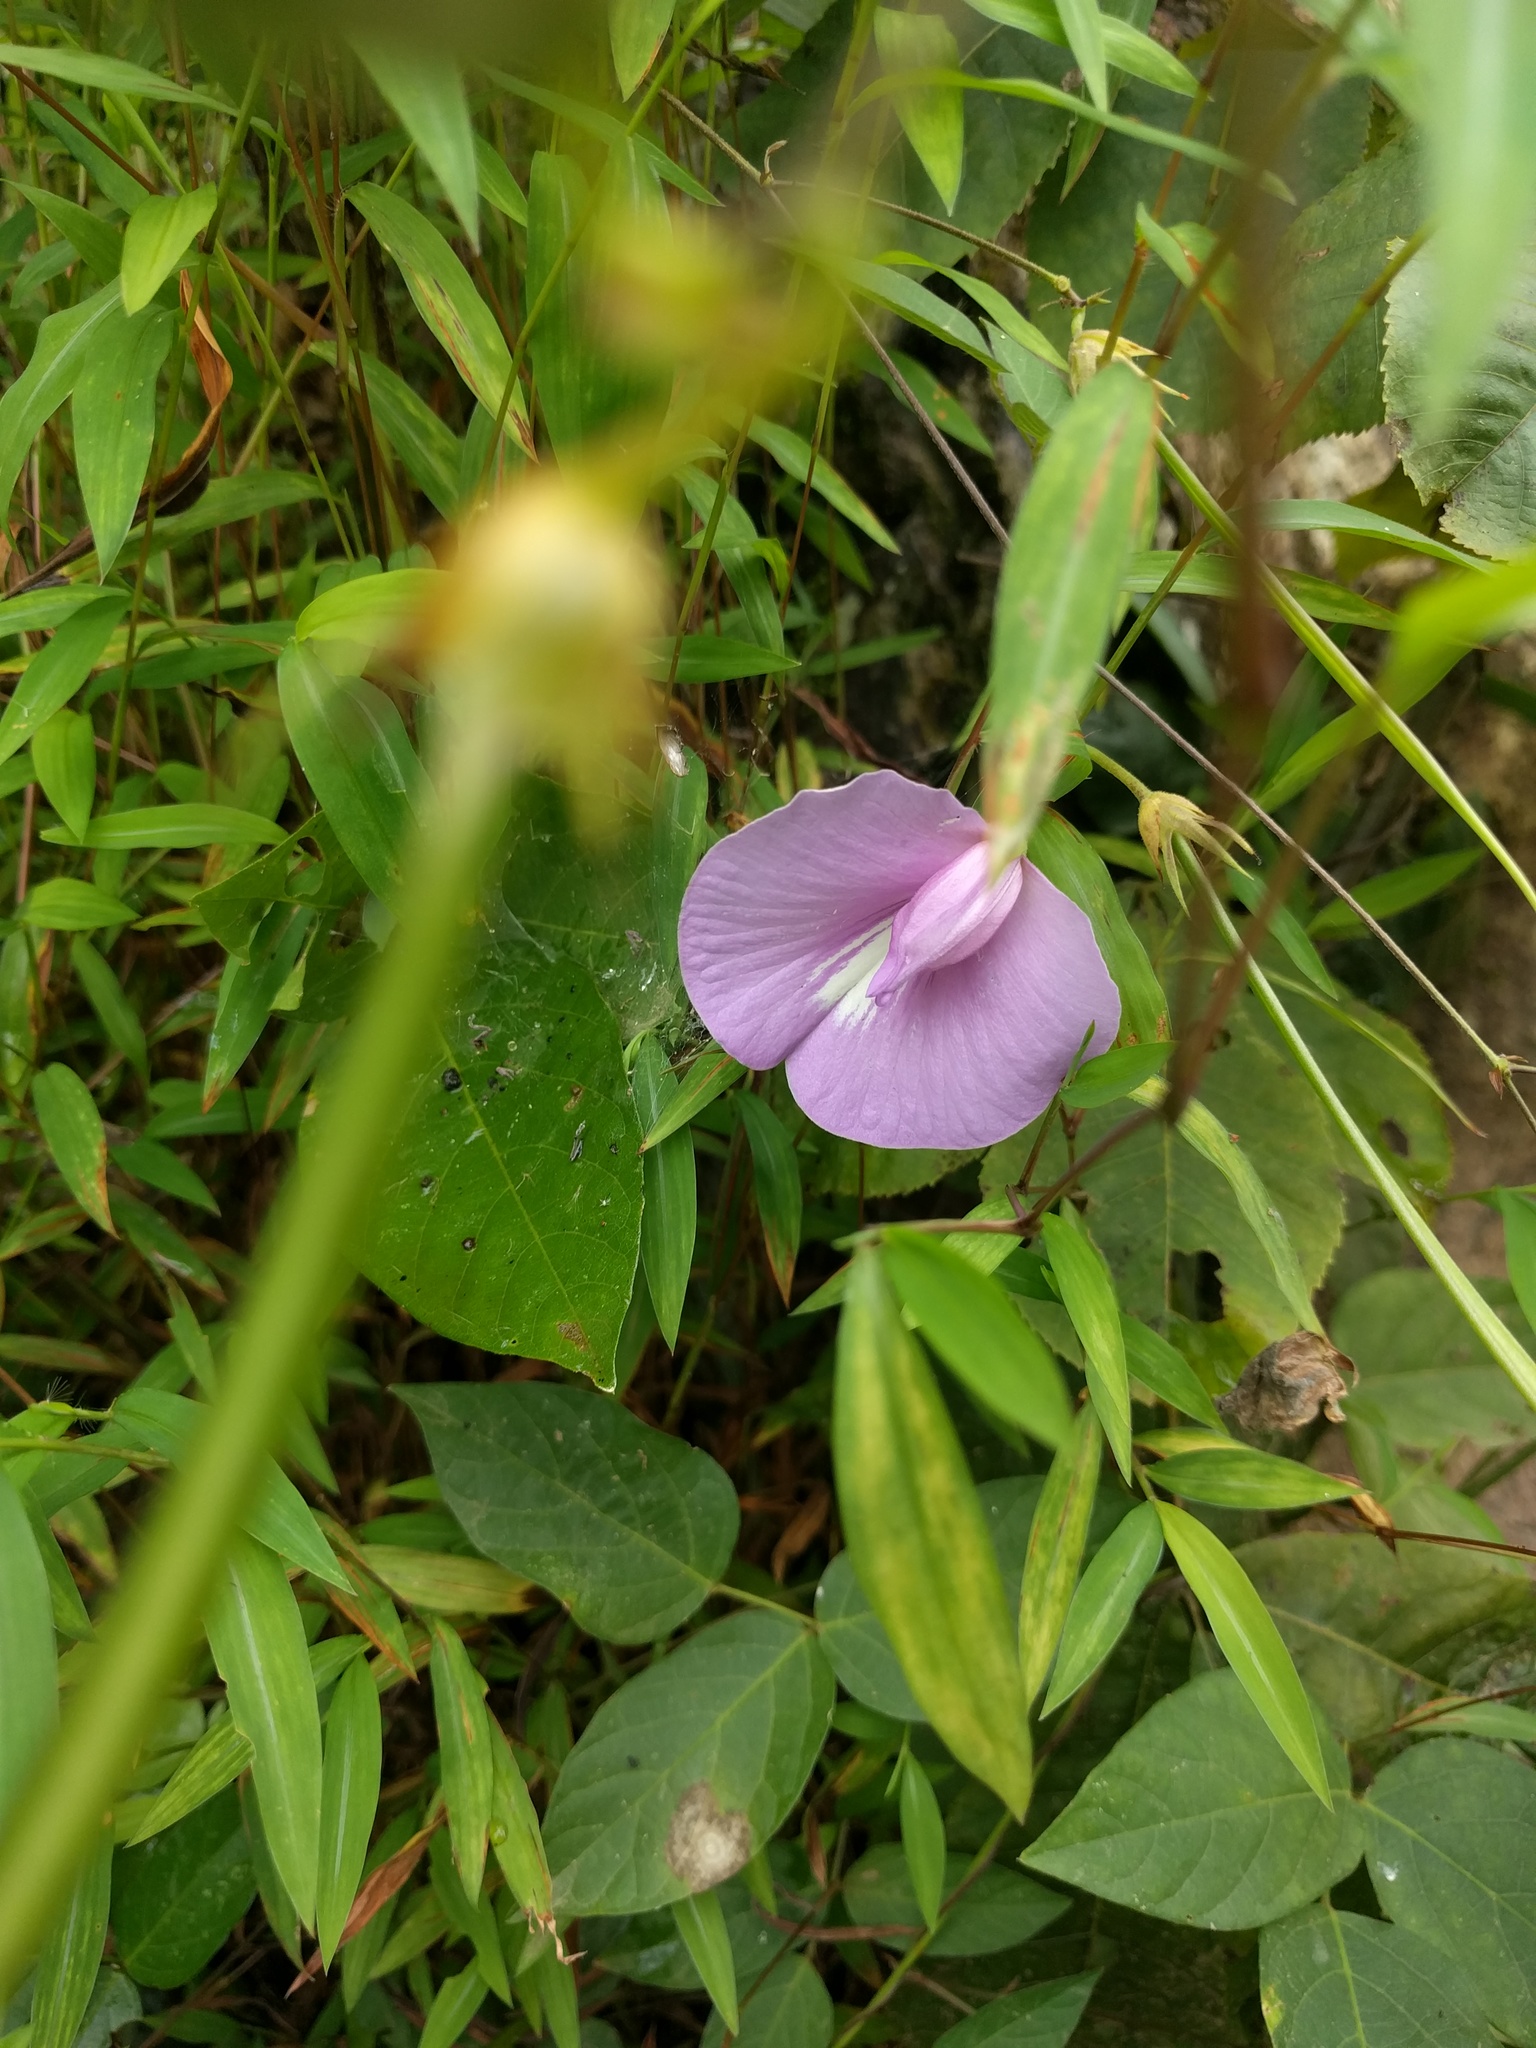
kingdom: Plantae
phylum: Tracheophyta
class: Magnoliopsida
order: Fabales
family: Fabaceae
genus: Centrosema
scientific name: Centrosema virginianum
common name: Butterfly-pea
